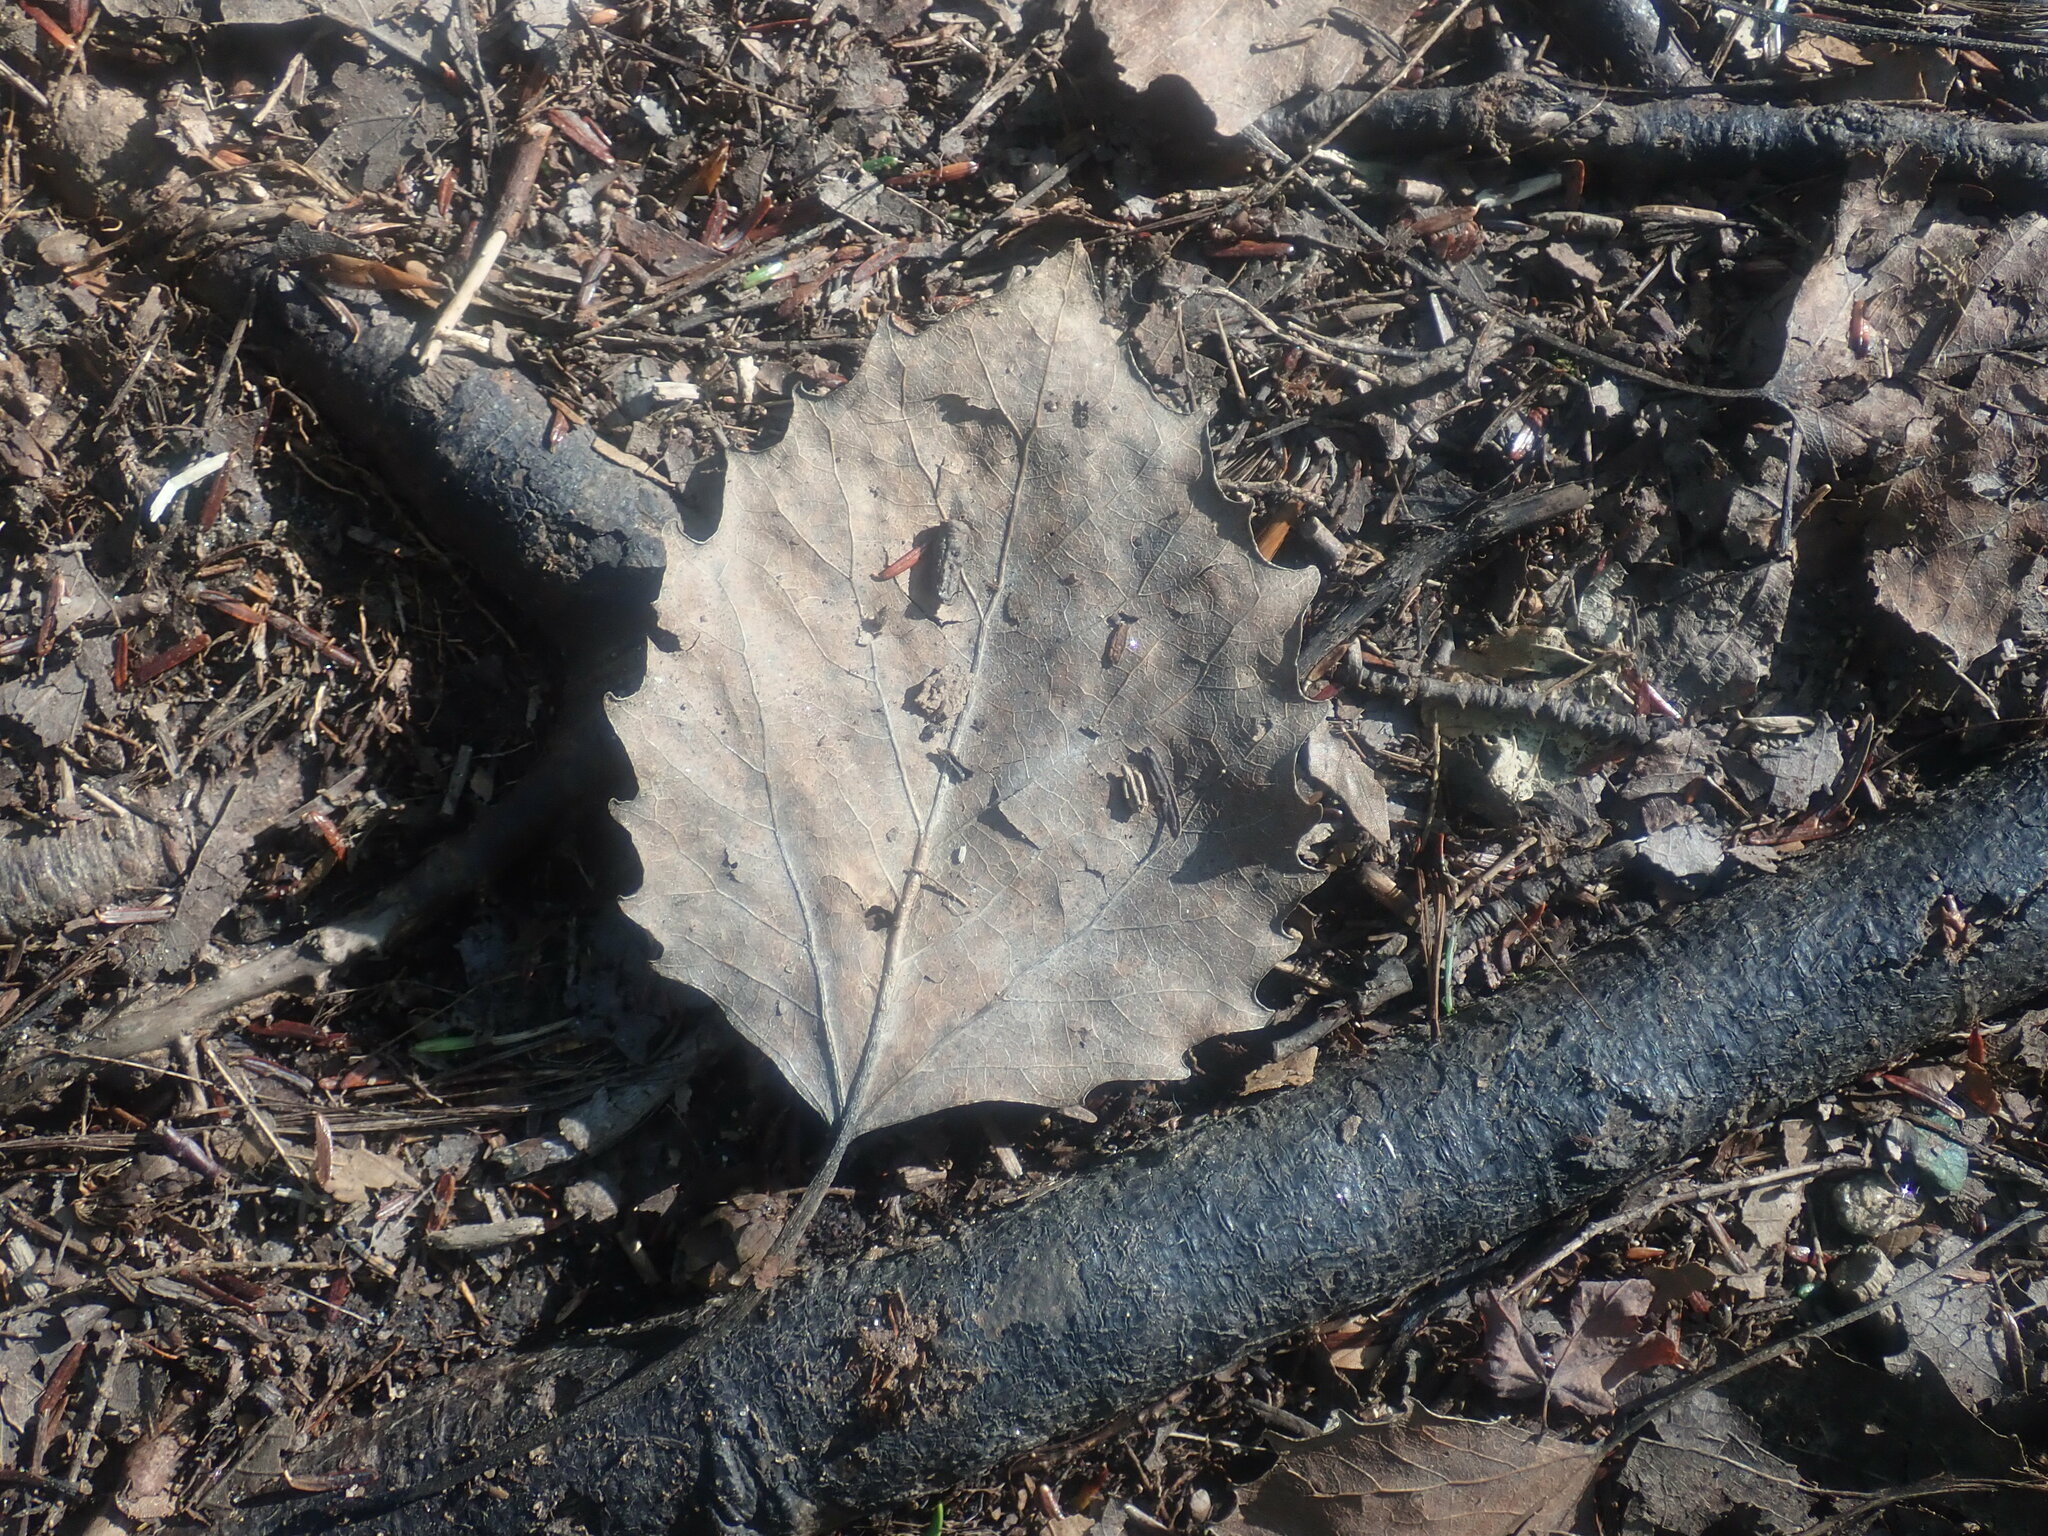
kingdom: Plantae
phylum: Tracheophyta
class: Magnoliopsida
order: Malpighiales
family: Salicaceae
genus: Populus
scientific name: Populus grandidentata
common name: Bigtooth aspen
